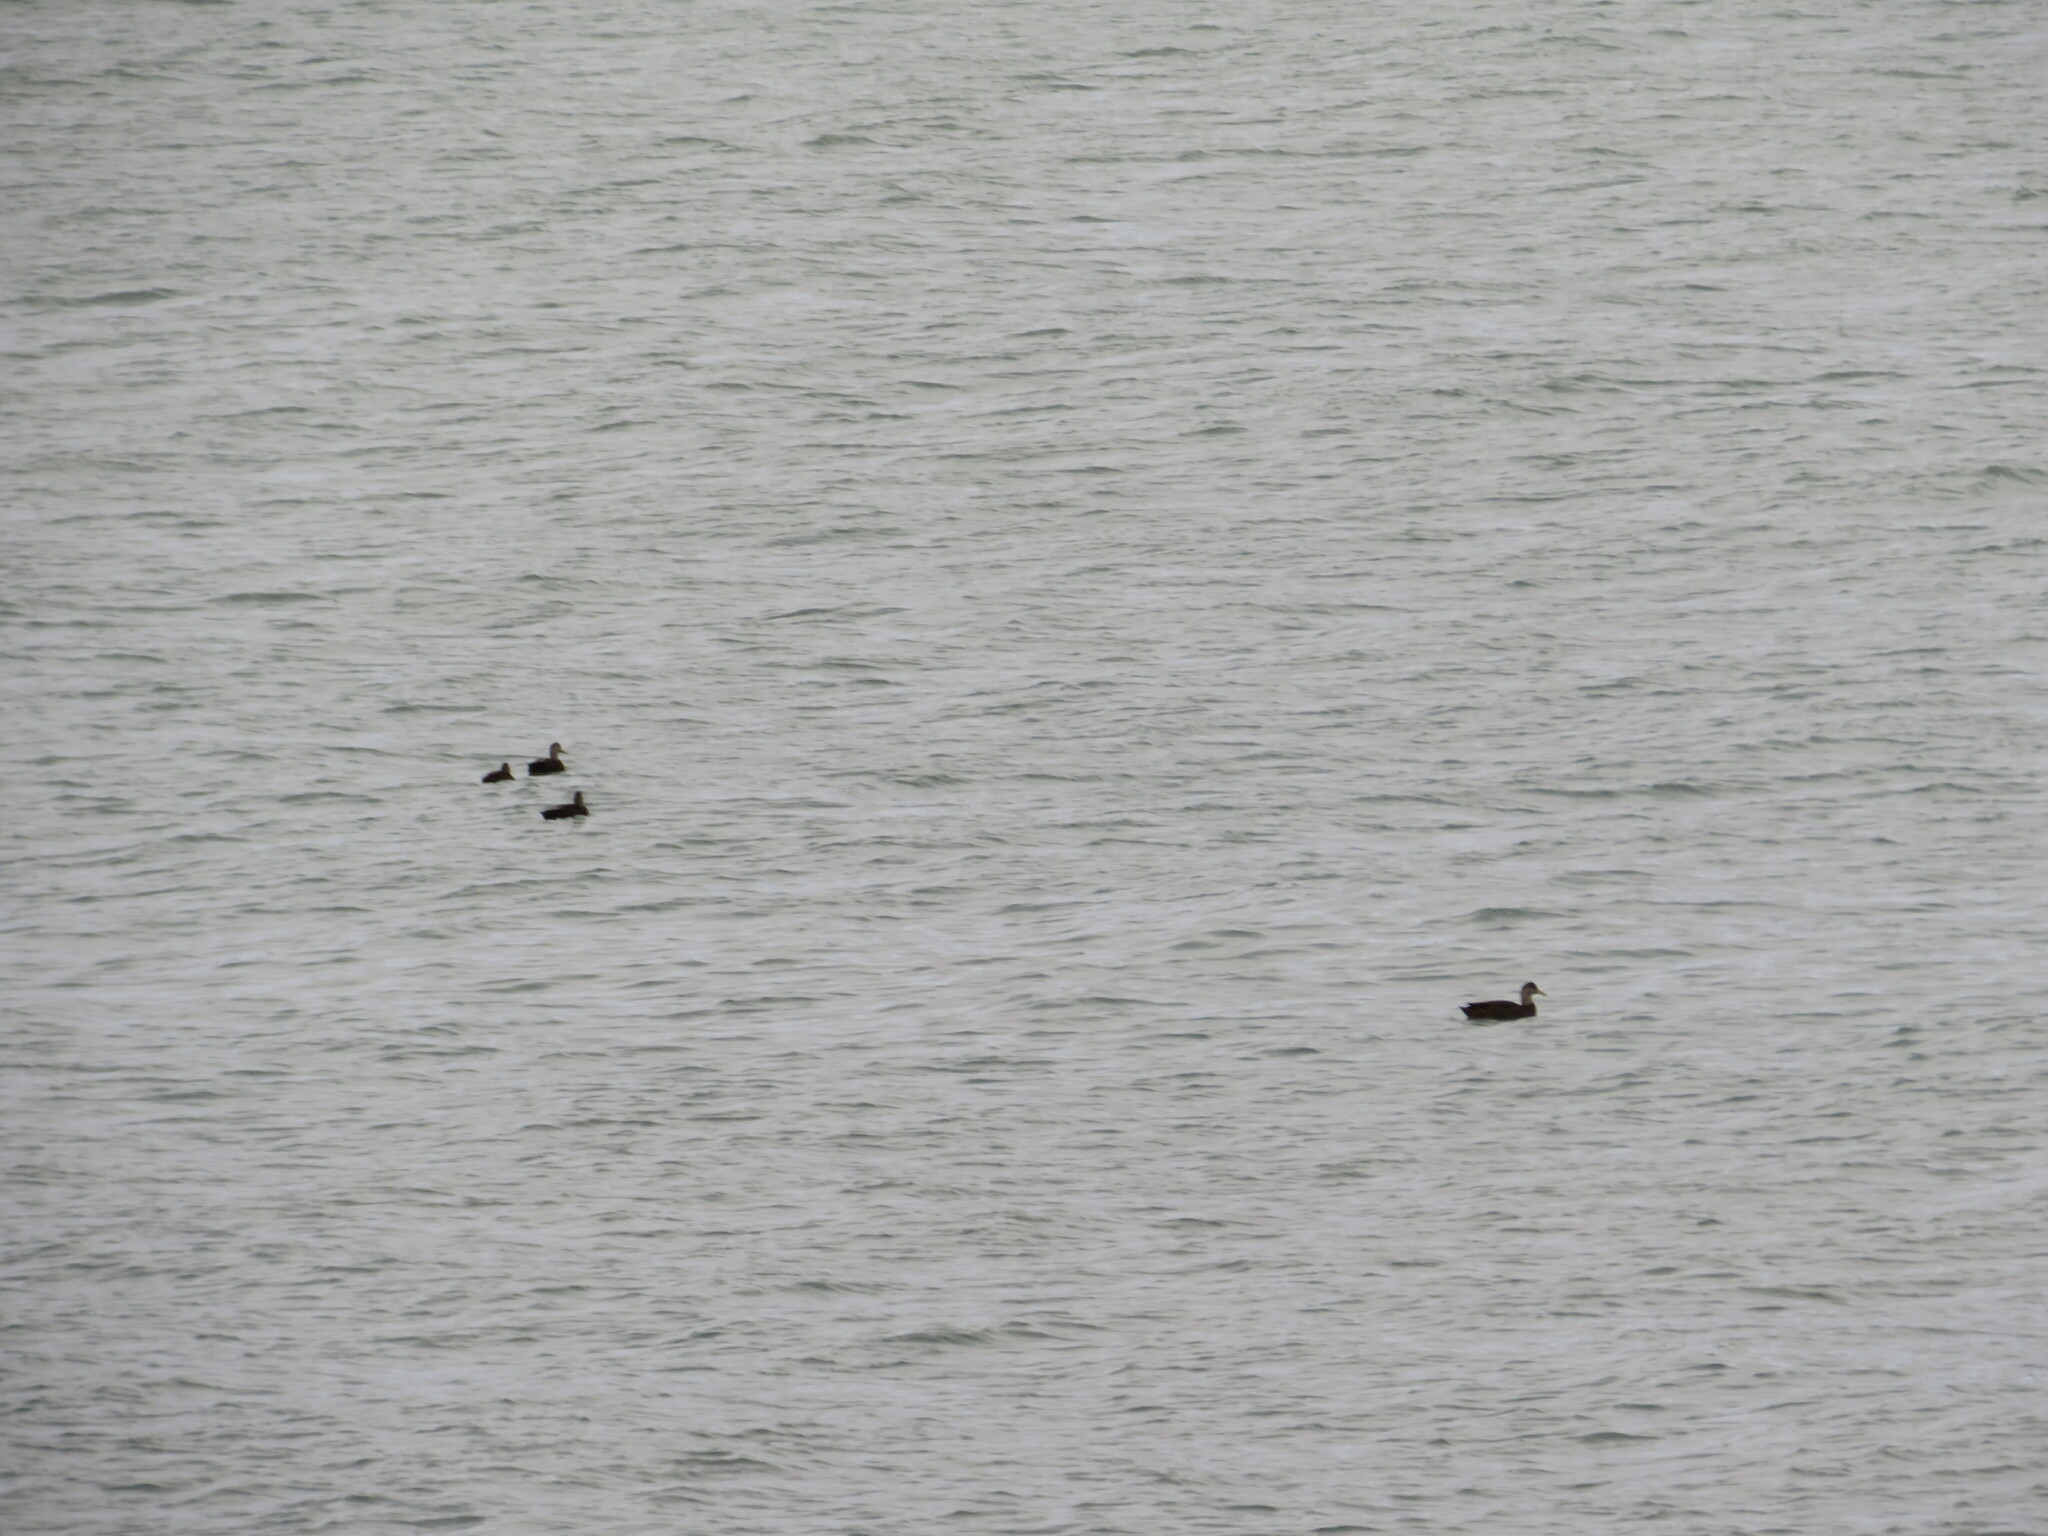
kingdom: Animalia
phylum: Chordata
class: Aves
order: Anseriformes
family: Anatidae
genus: Anas
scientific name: Anas rubripes
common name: American black duck
